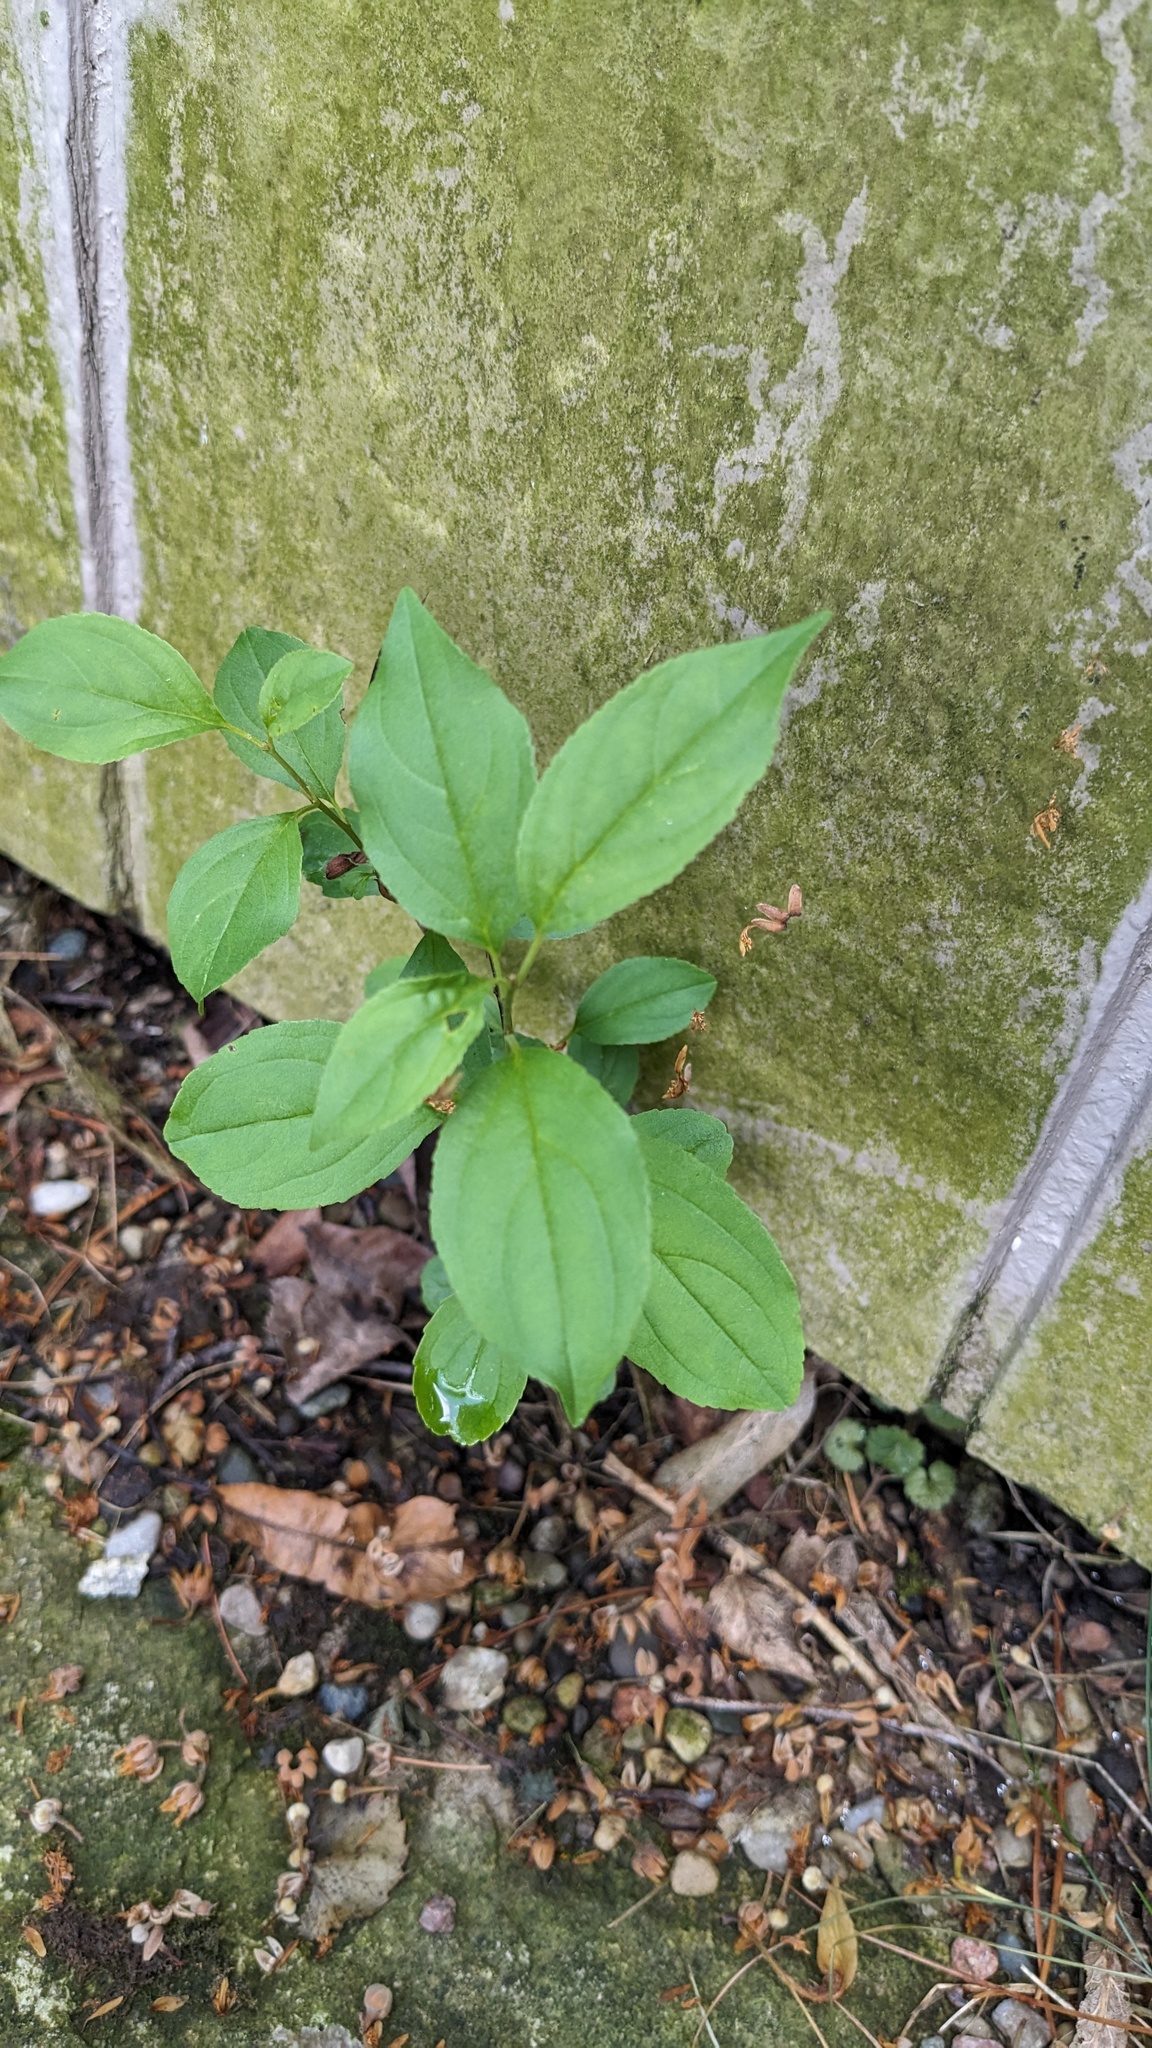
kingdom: Plantae
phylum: Tracheophyta
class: Magnoliopsida
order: Rosales
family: Rhamnaceae
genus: Rhamnus
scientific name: Rhamnus cathartica
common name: Common buckthorn
